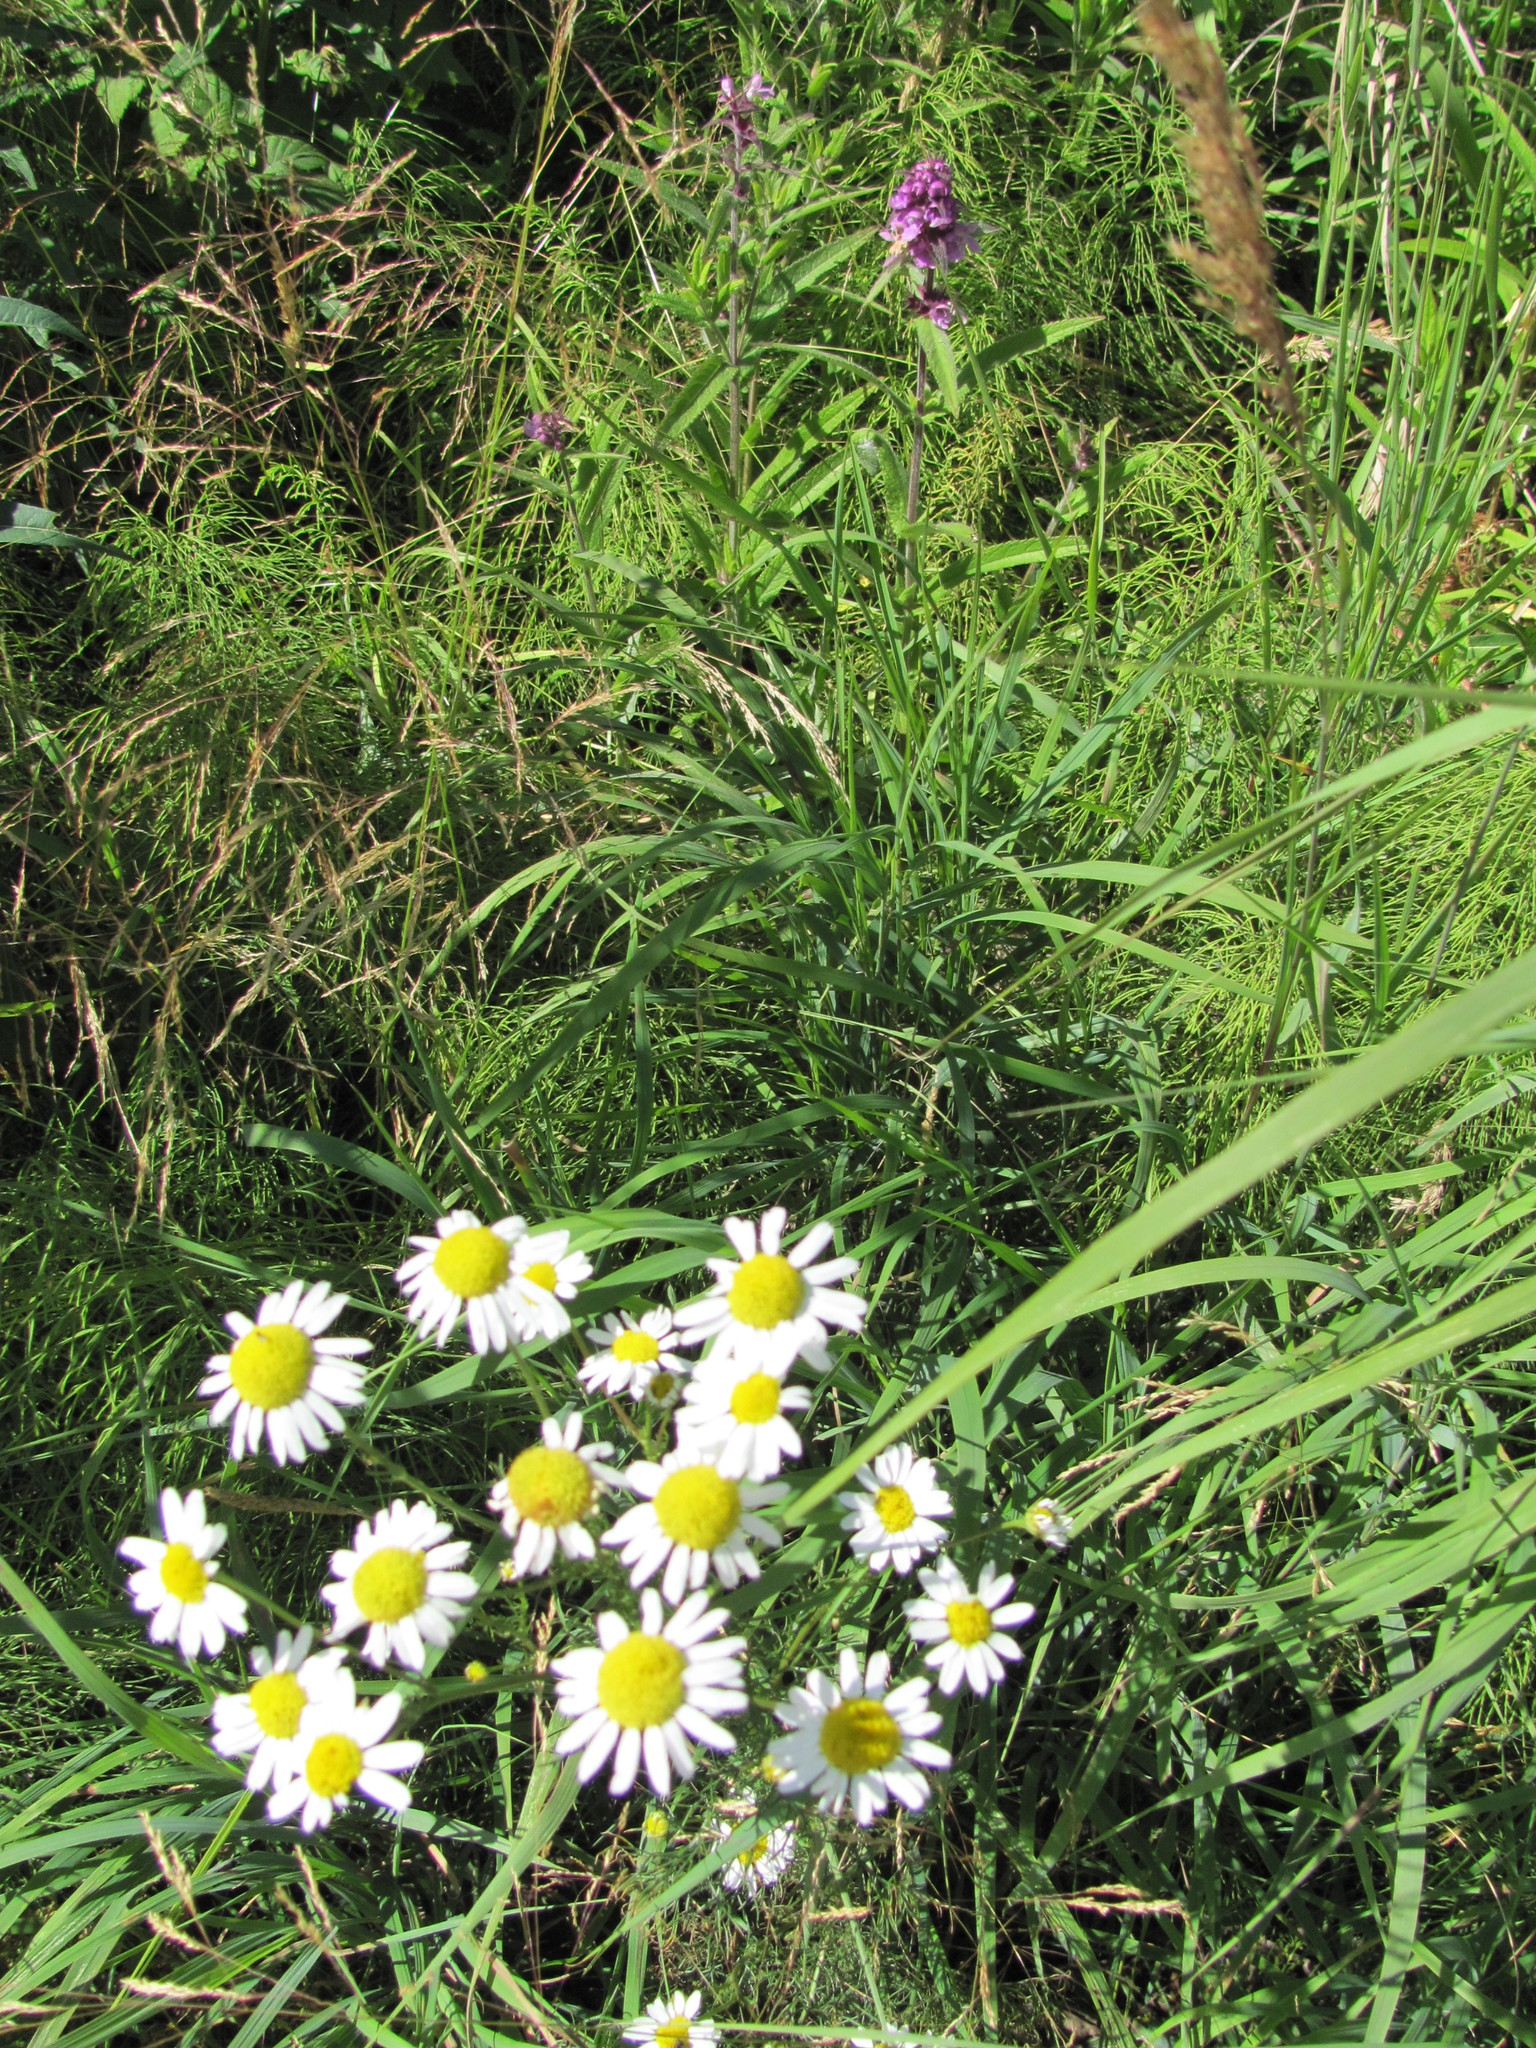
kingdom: Plantae
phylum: Tracheophyta
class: Magnoliopsida
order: Asterales
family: Asteraceae
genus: Tripleurospermum
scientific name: Tripleurospermum inodorum
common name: Scentless mayweed
